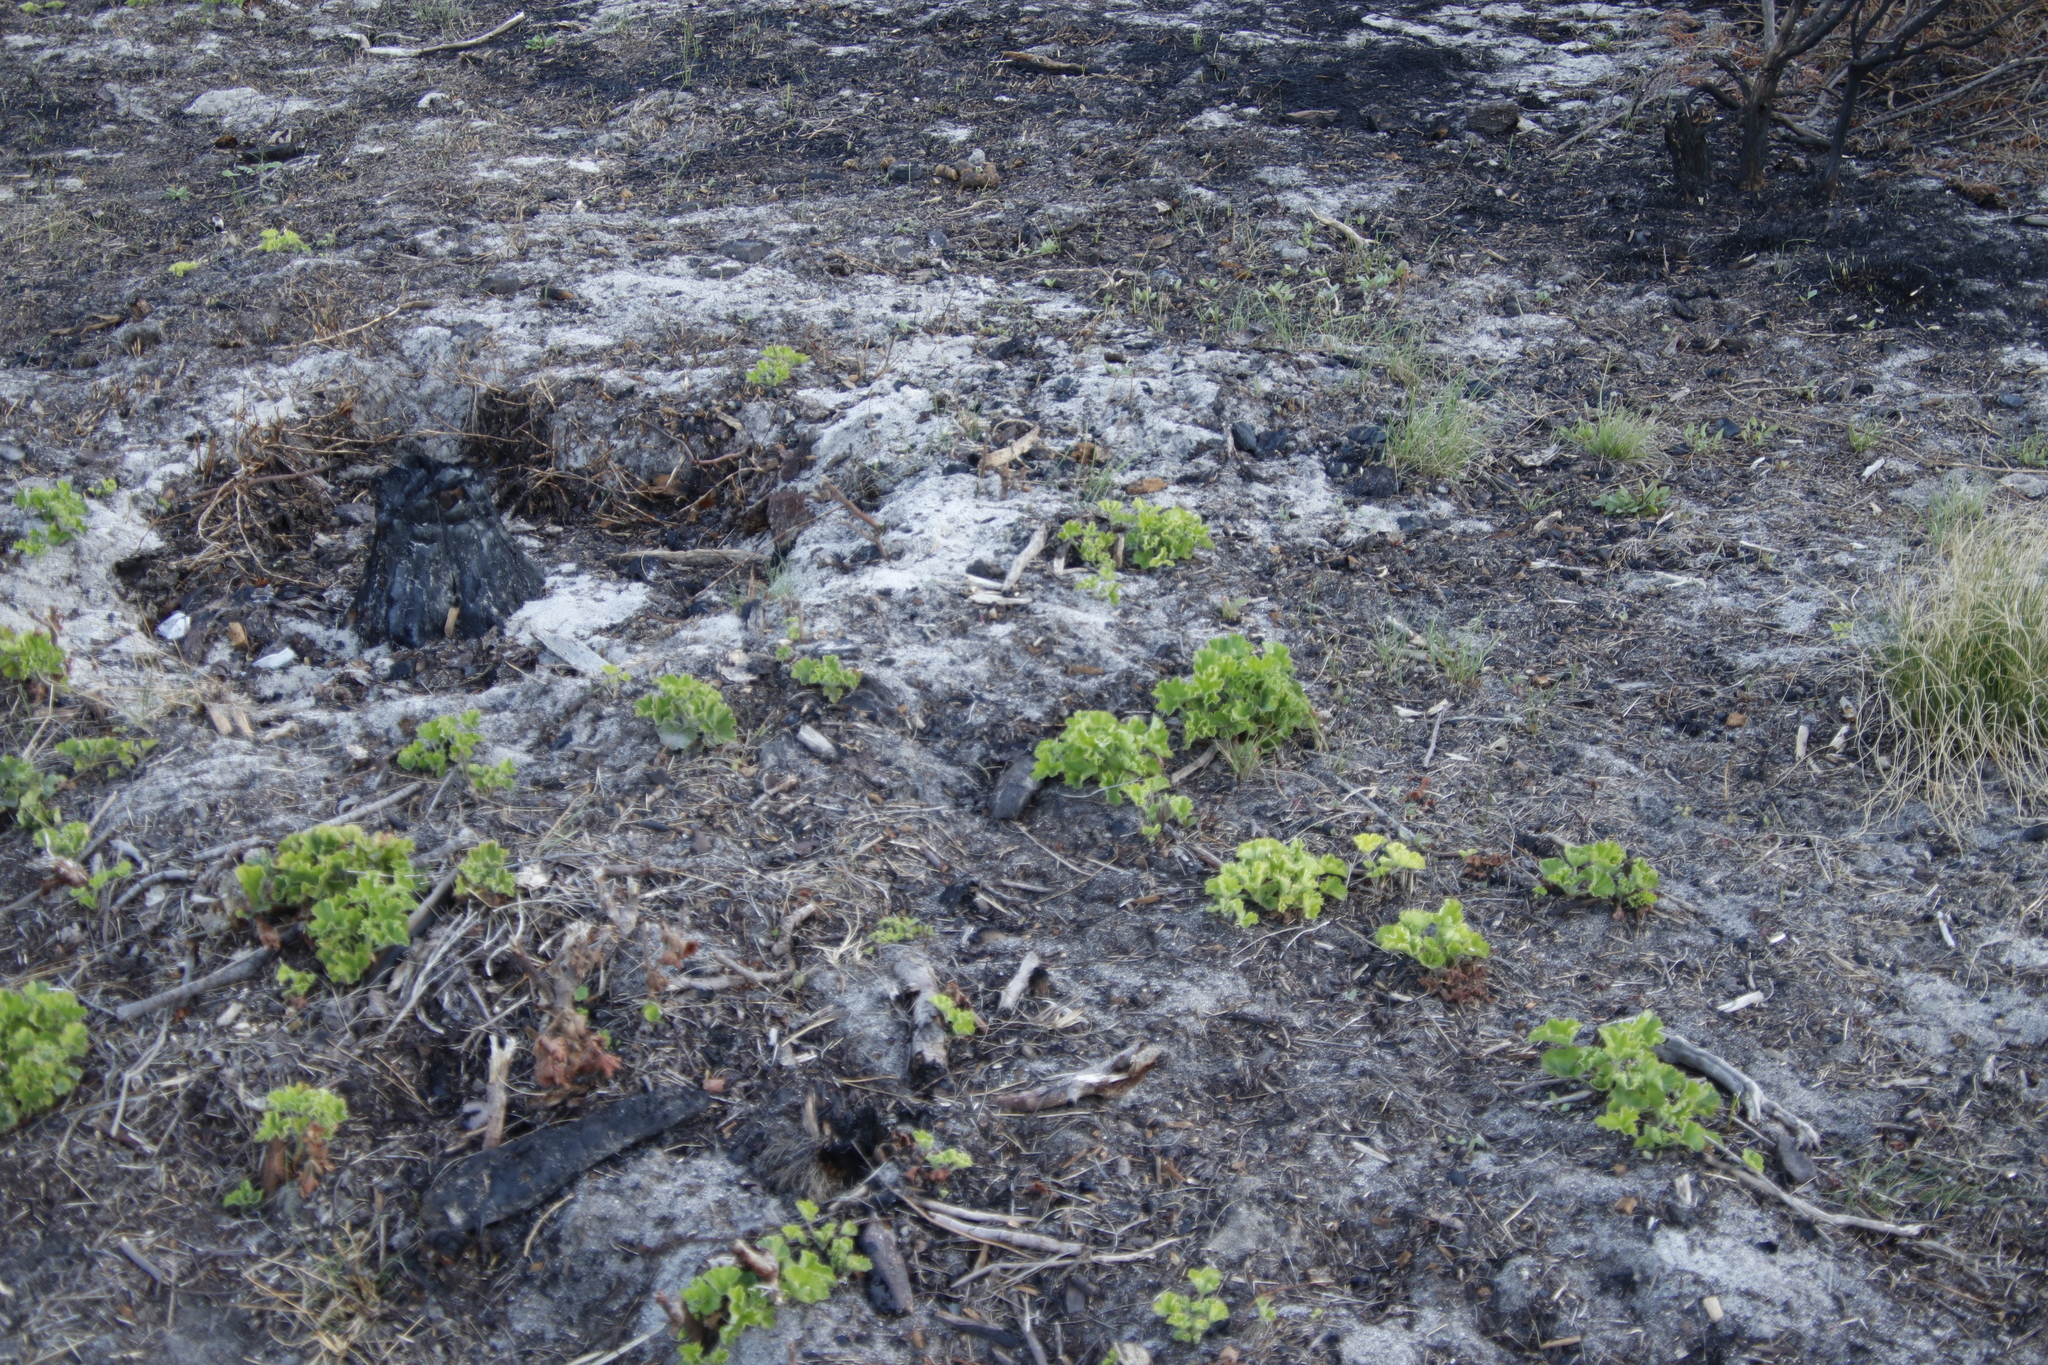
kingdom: Plantae
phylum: Tracheophyta
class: Magnoliopsida
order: Geraniales
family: Geraniaceae
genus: Pelargonium
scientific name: Pelargonium cucullatum
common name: Tree pelargonium
